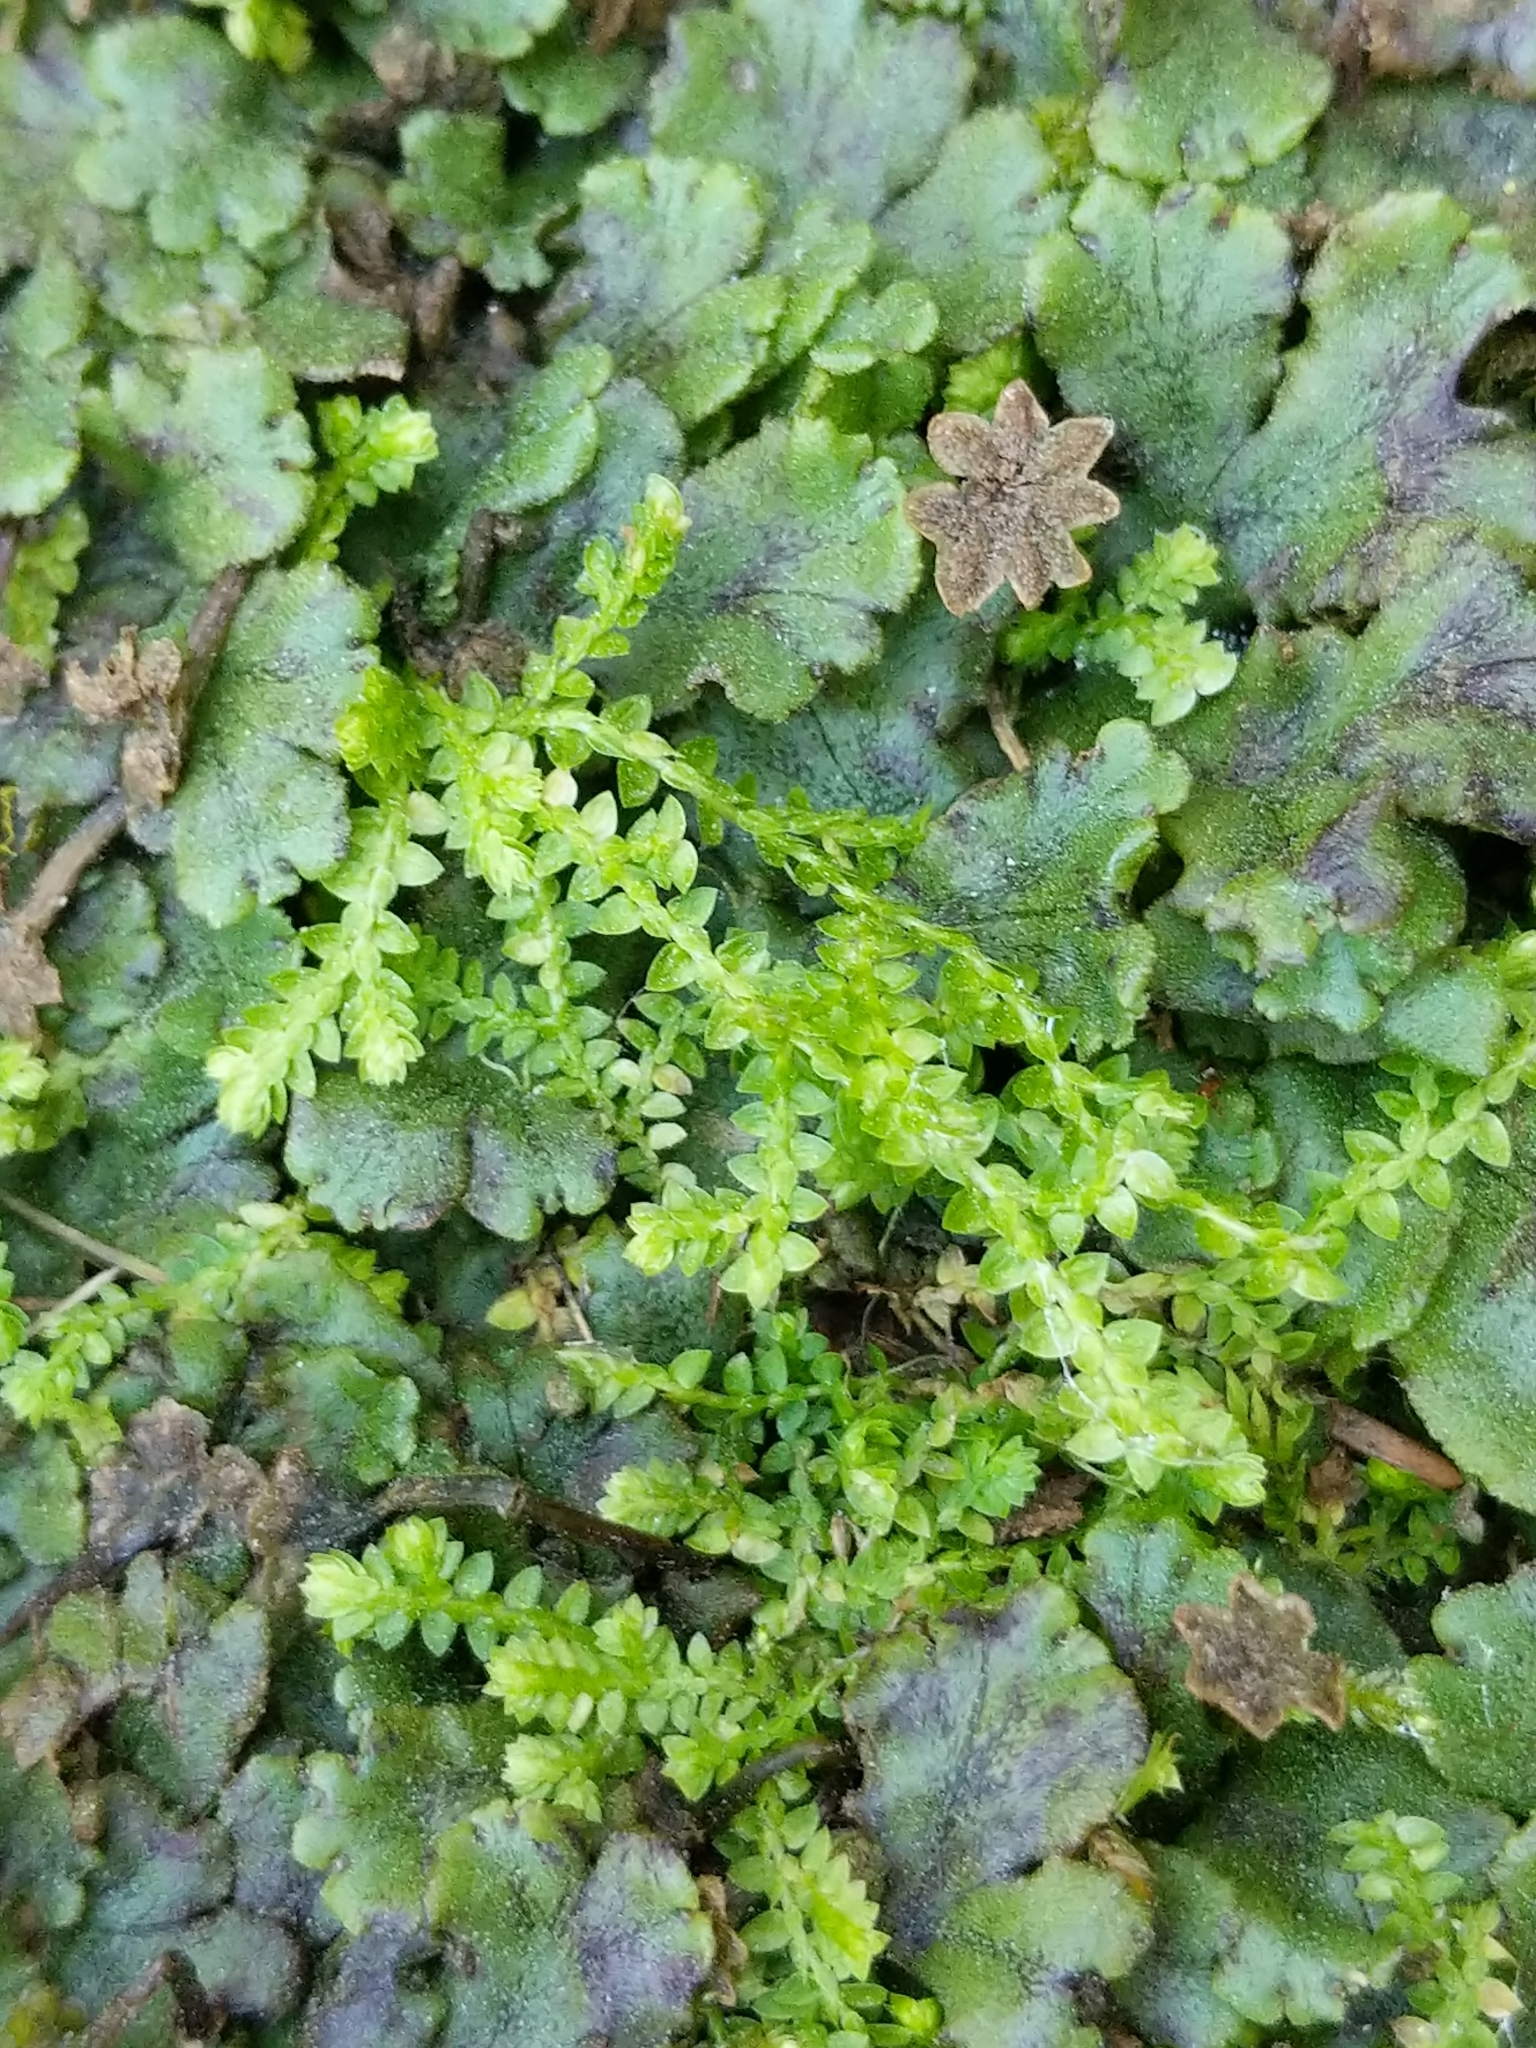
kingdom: Plantae
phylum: Tracheophyta
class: Lycopodiopsida
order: Selaginellales
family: Selaginellaceae
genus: Selaginella
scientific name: Selaginella apoda
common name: Creeping spikemoss
